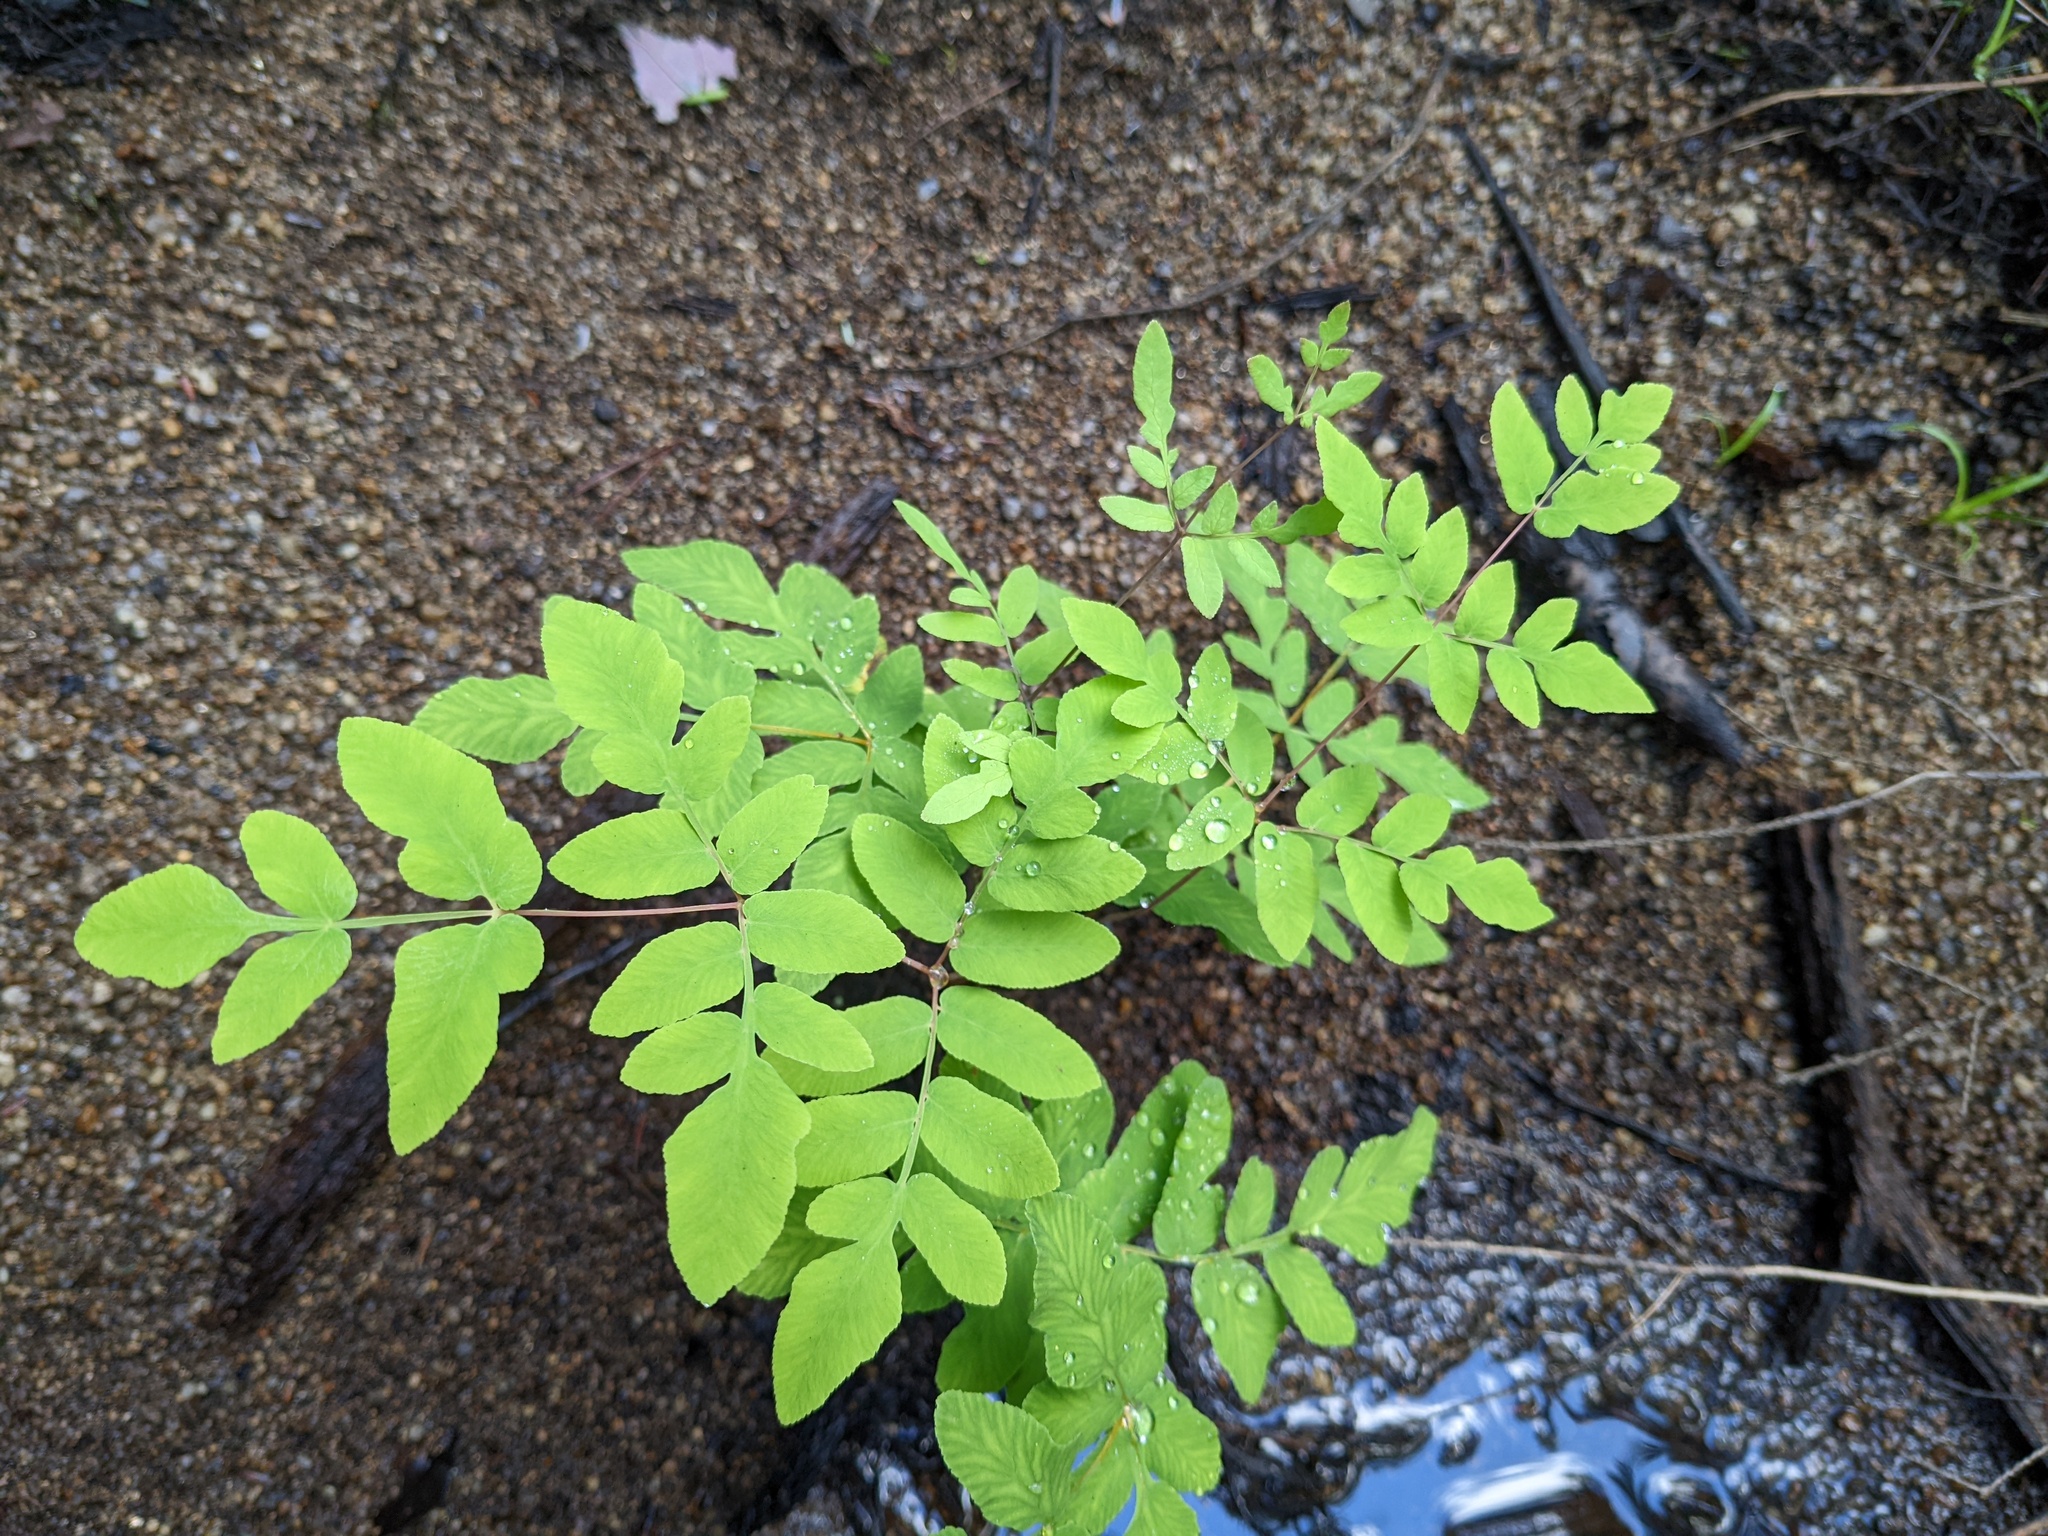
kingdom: Plantae
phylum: Tracheophyta
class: Polypodiopsida
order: Osmundales
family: Osmundaceae
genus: Osmunda
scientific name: Osmunda spectabilis
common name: American royal fern
